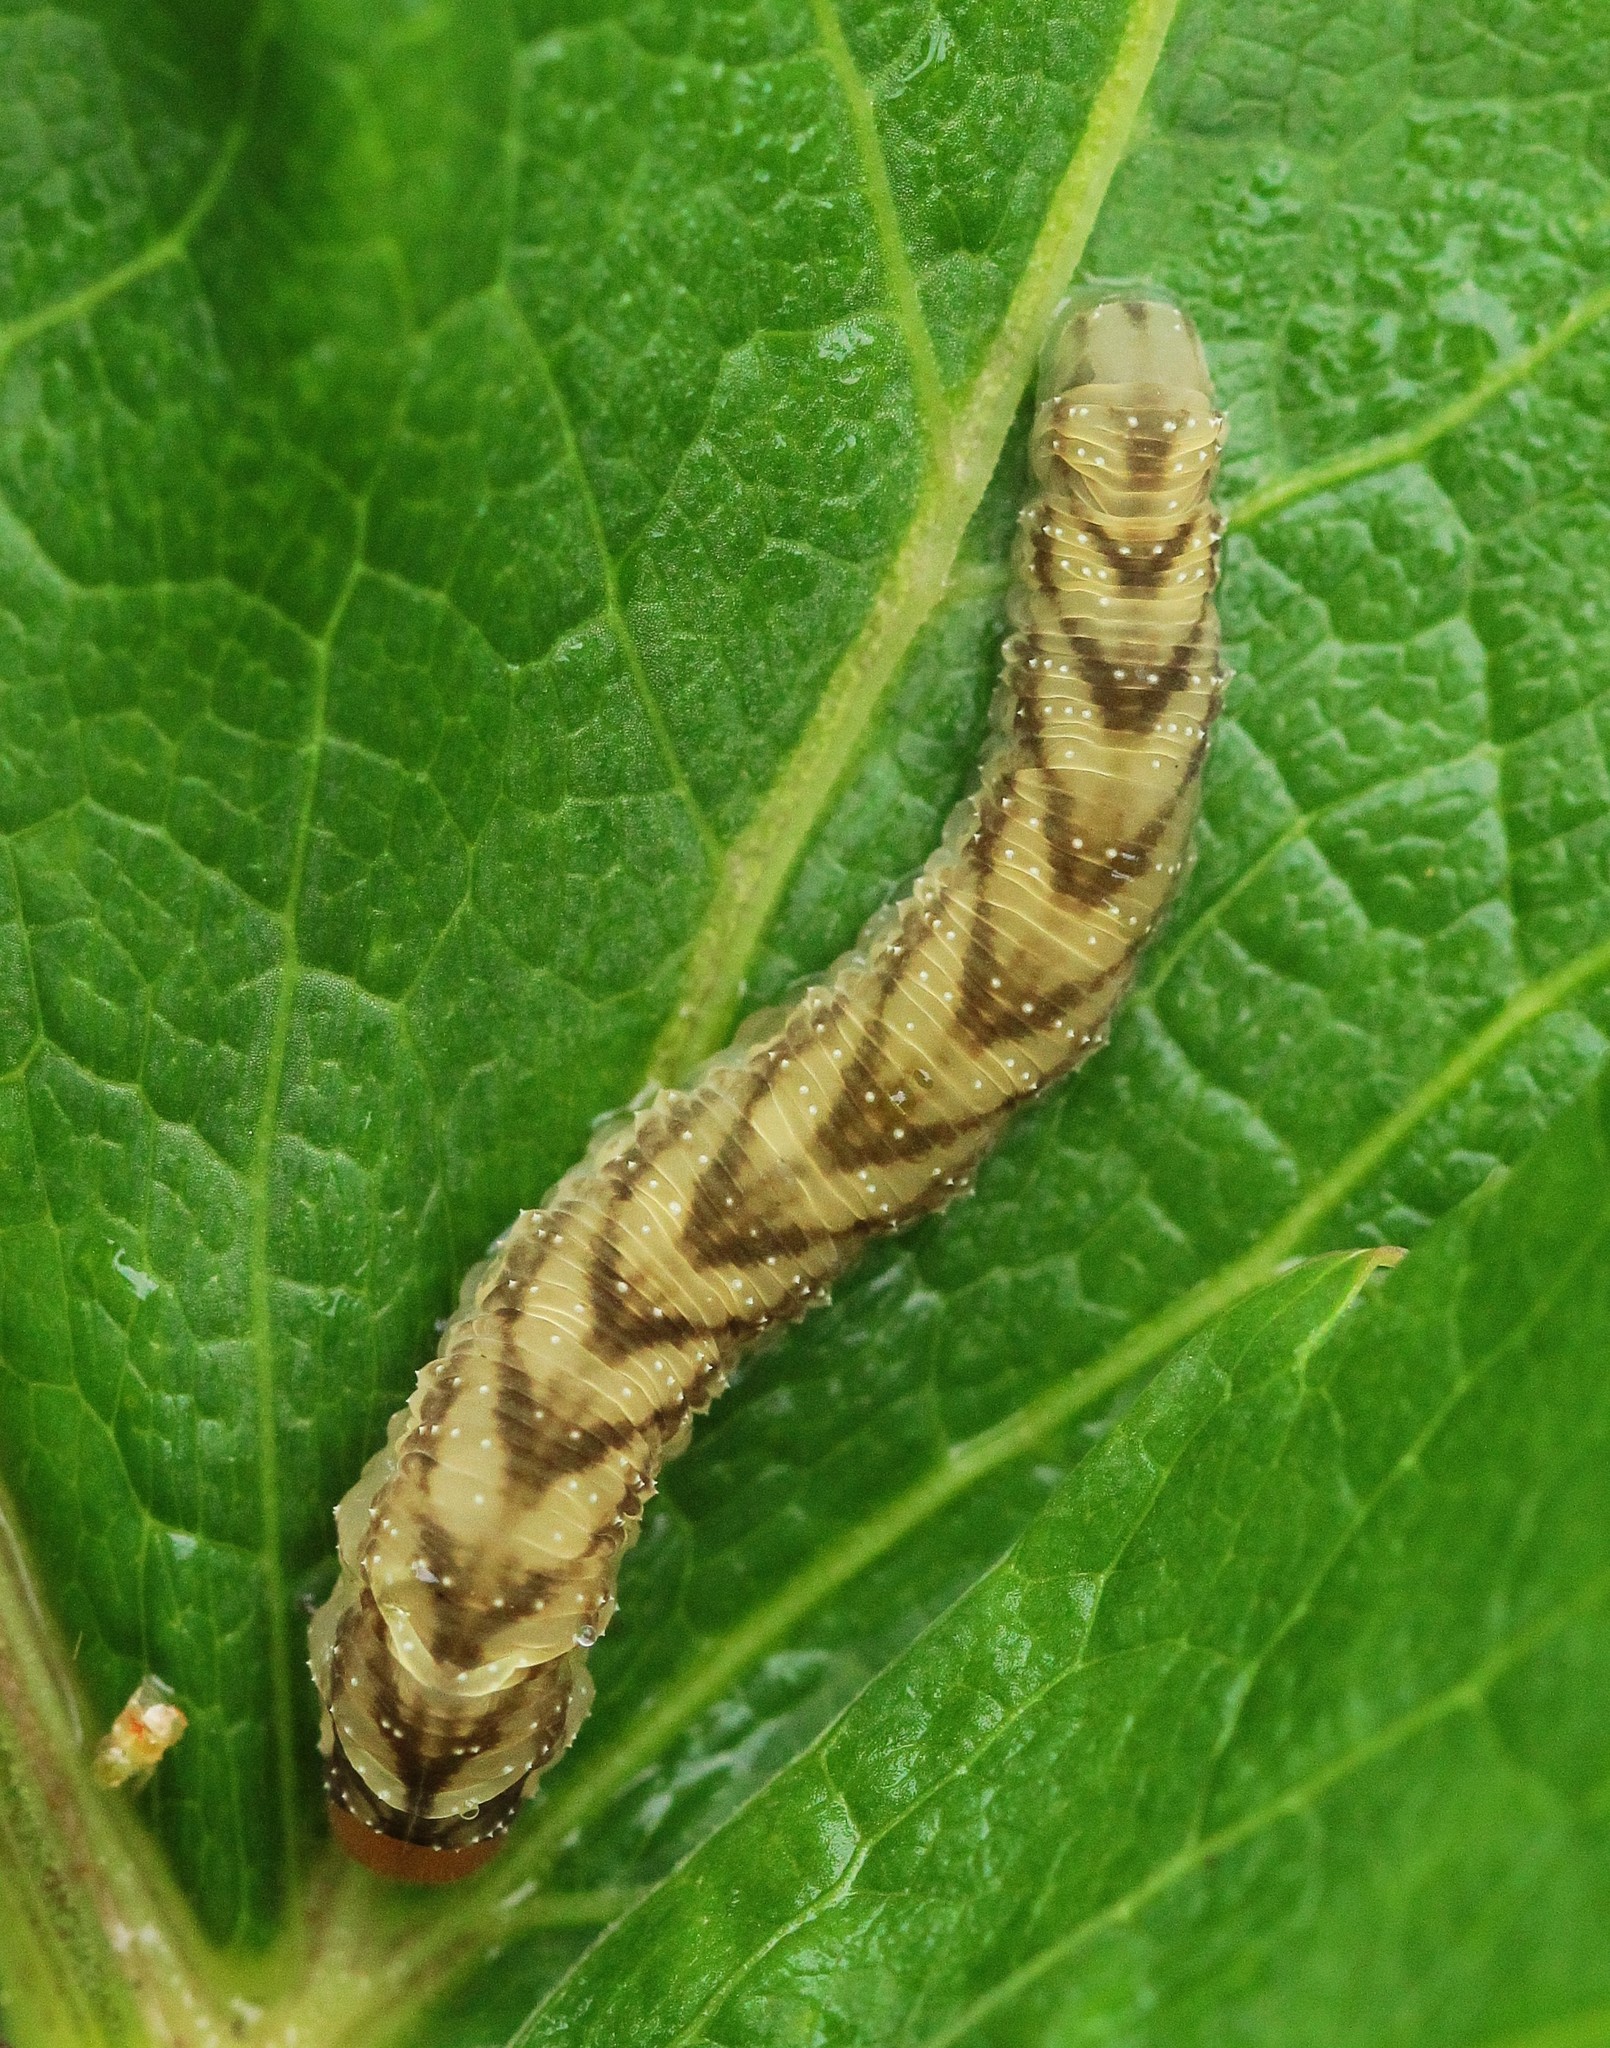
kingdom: Animalia
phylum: Arthropoda
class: Insecta
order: Hymenoptera
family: Tenthredinidae
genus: Tenthredo
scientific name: Tenthredo campestris
